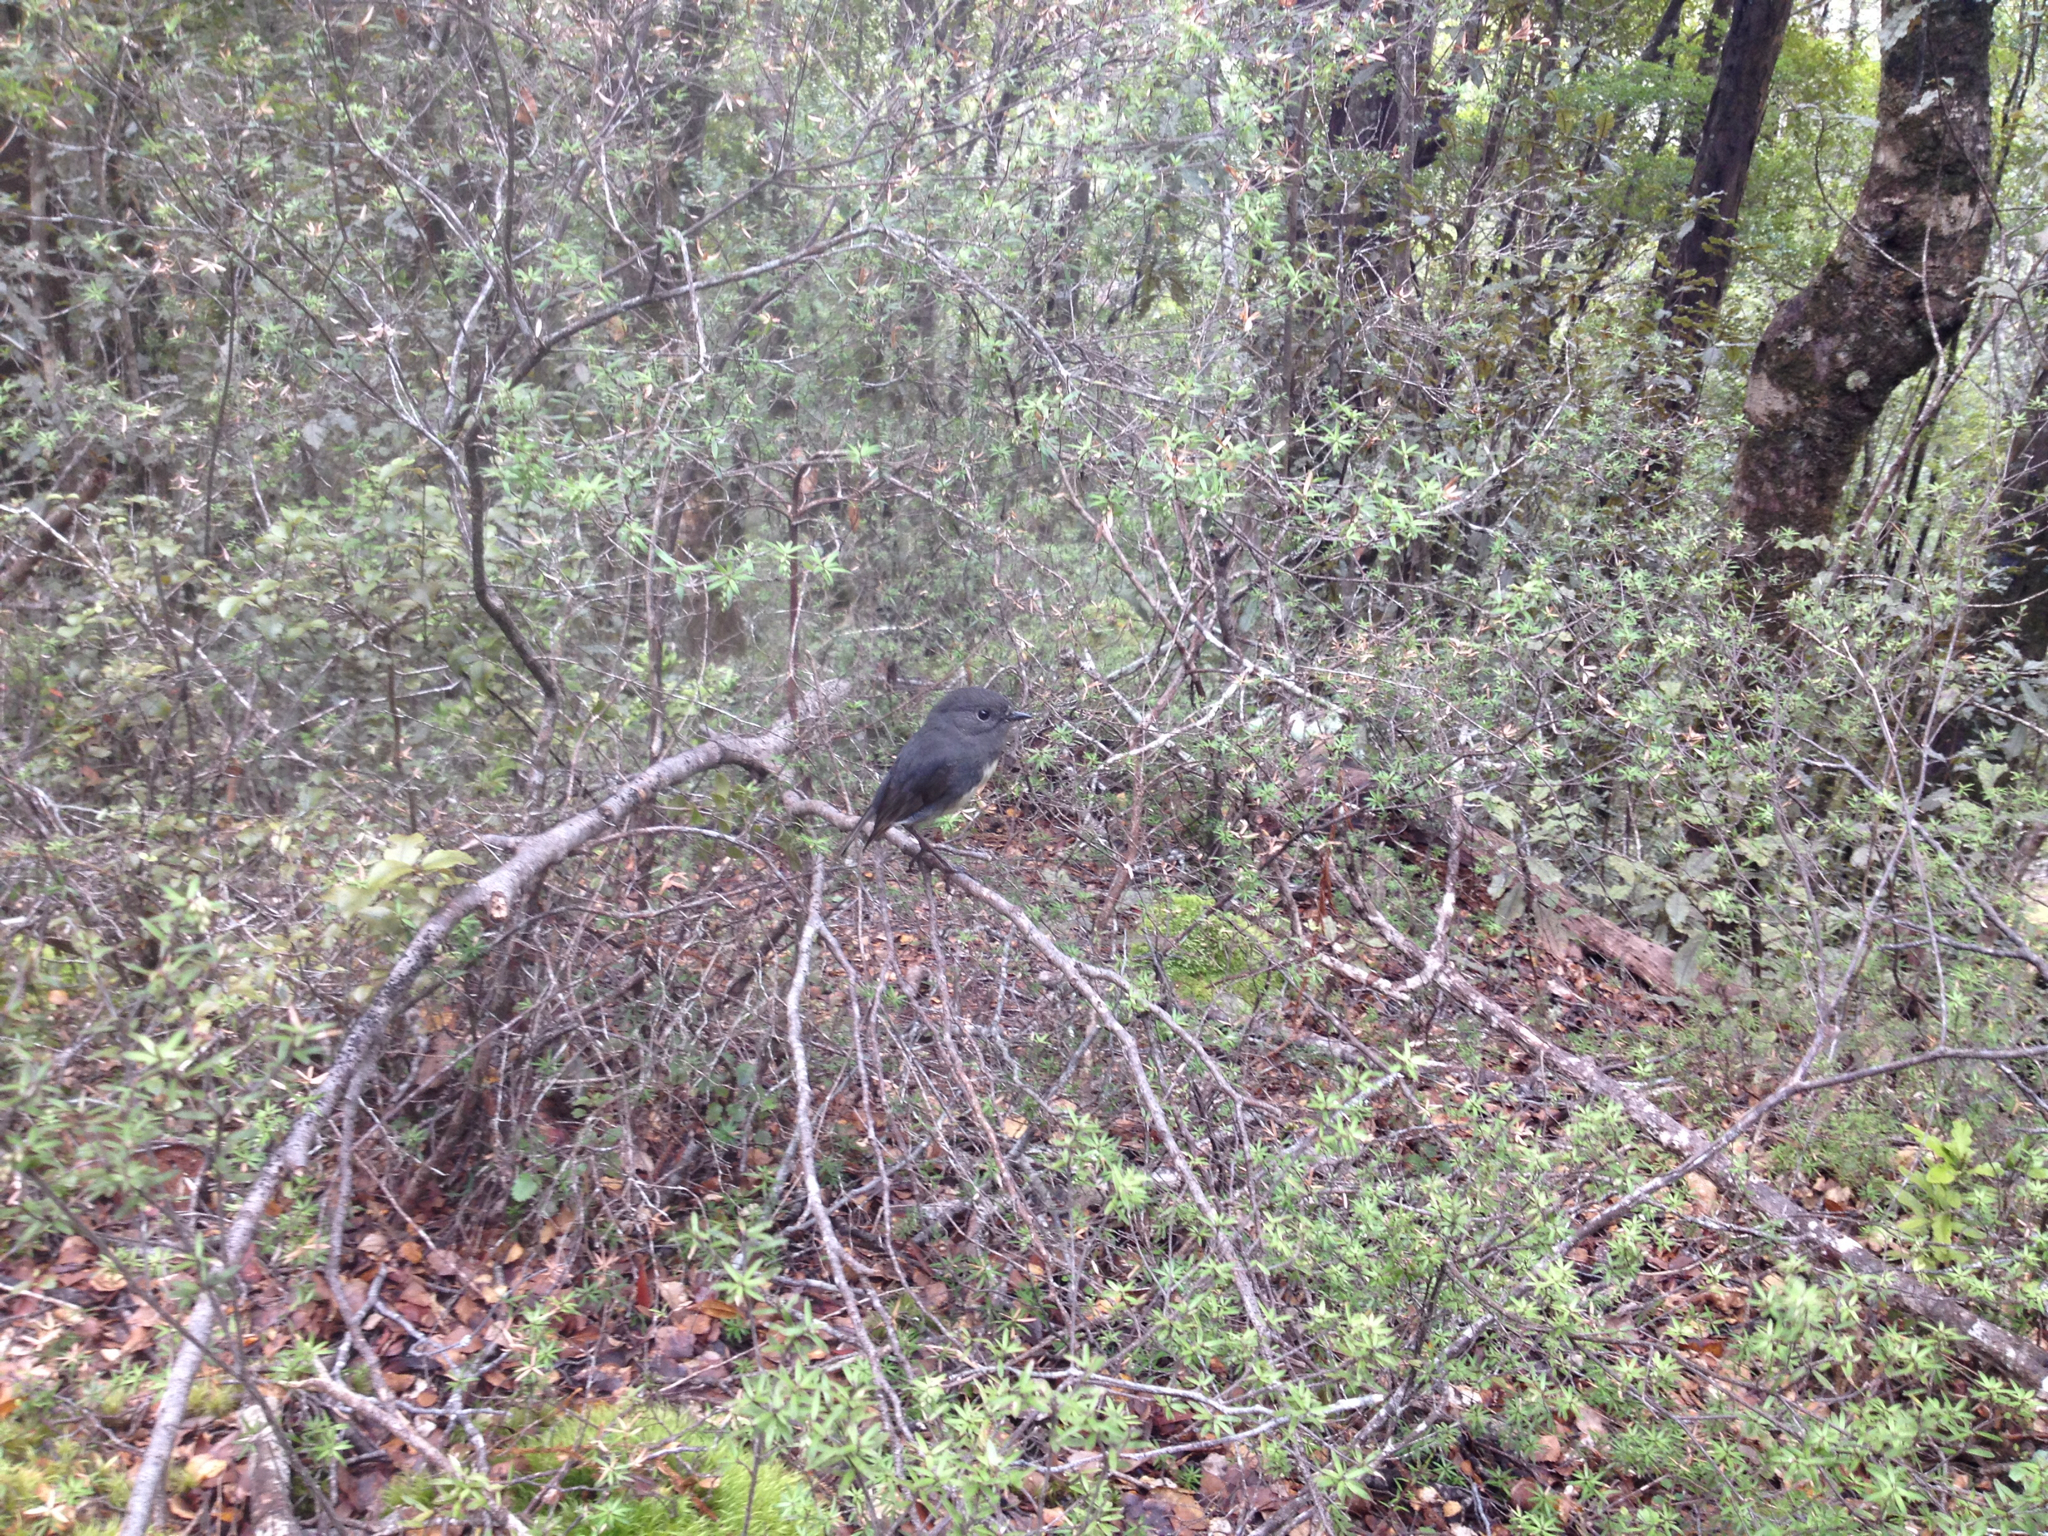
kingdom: Animalia
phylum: Chordata
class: Aves
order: Passeriformes
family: Petroicidae
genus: Petroica
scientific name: Petroica australis
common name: New zealand robin
